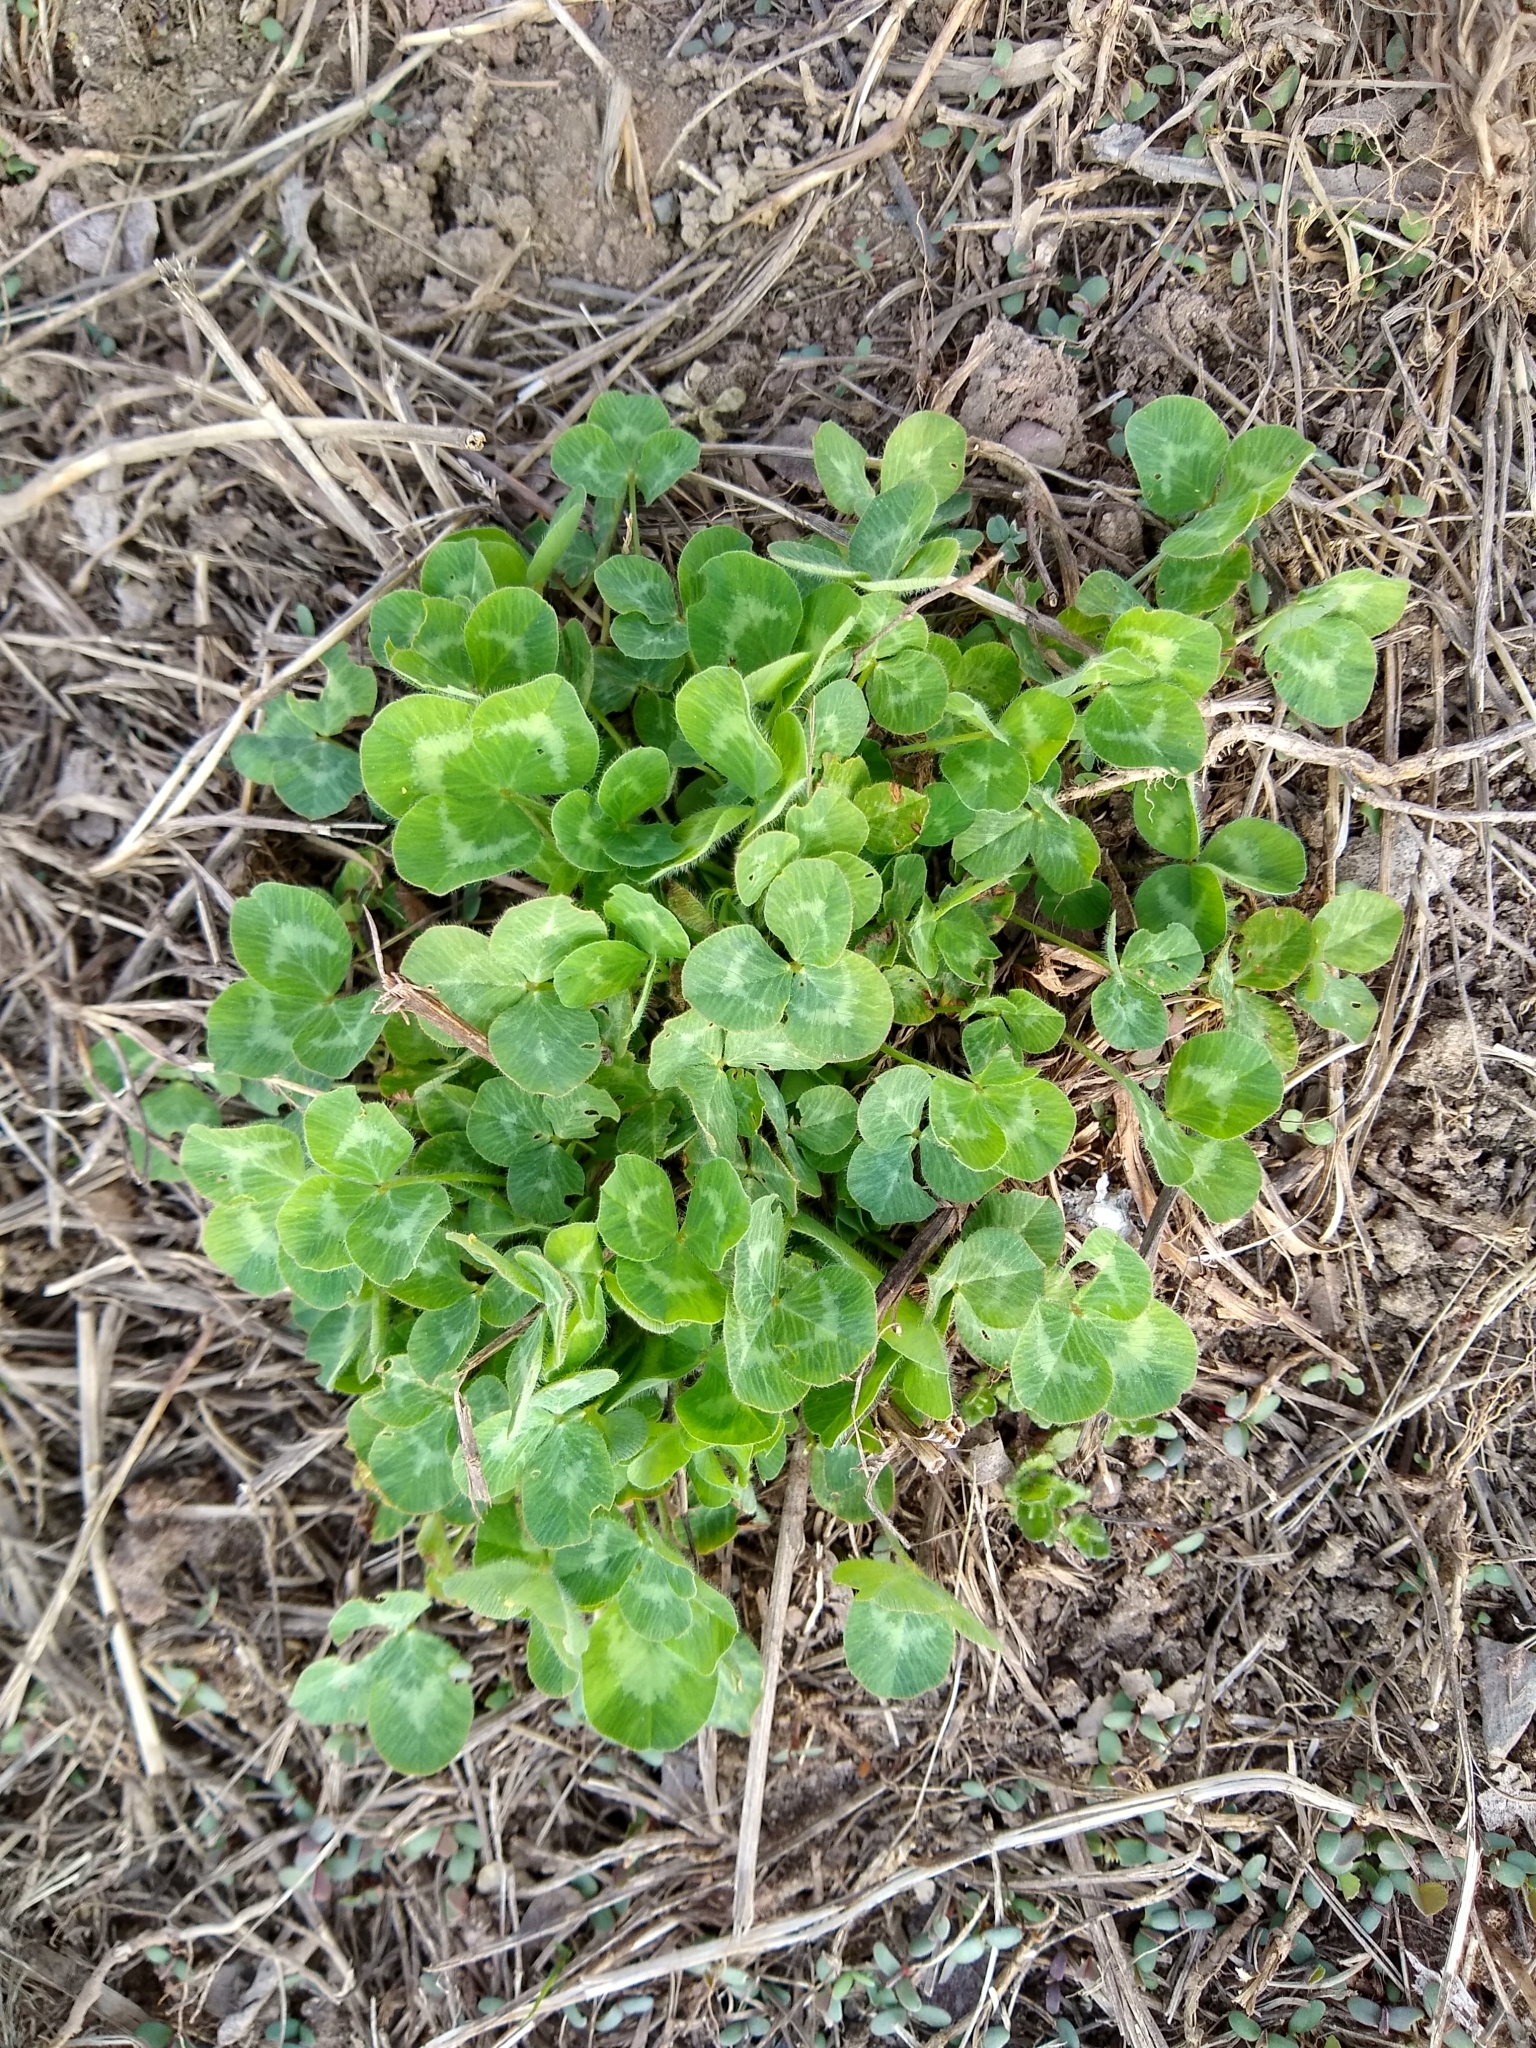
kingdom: Plantae
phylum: Tracheophyta
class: Magnoliopsida
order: Fabales
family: Fabaceae
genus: Trifolium
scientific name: Trifolium pratense
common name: Red clover
